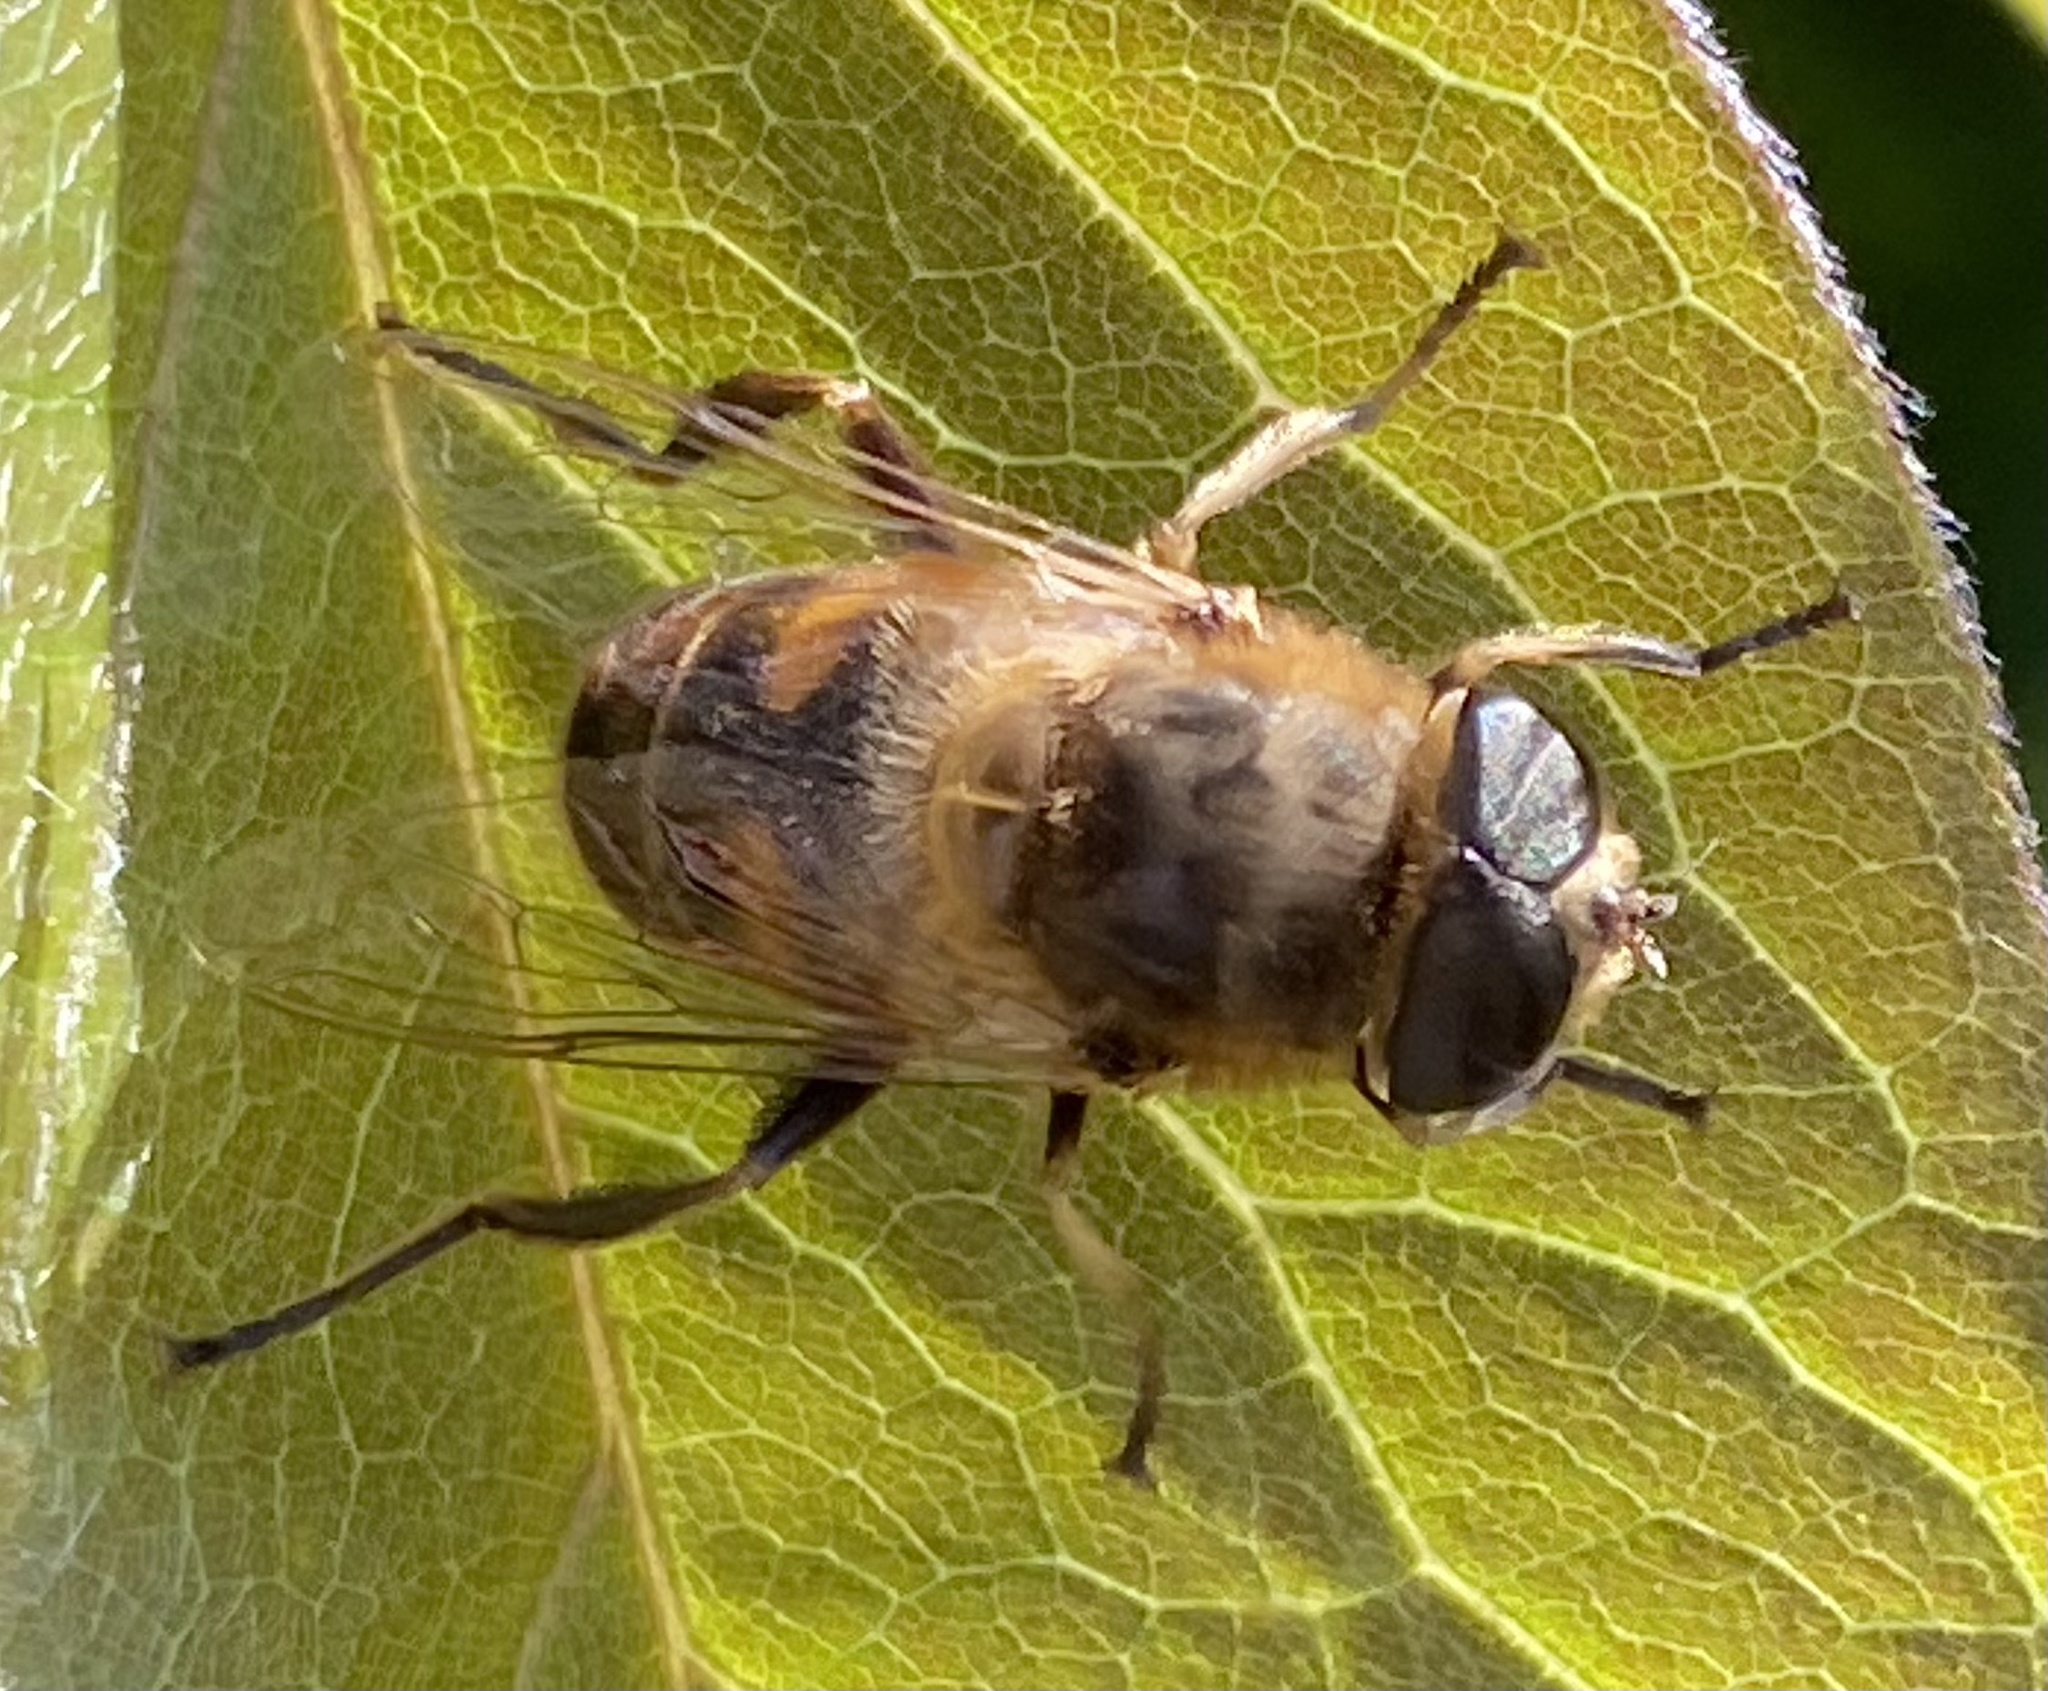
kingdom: Animalia
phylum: Arthropoda
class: Insecta
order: Diptera
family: Syrphidae
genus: Eristalis
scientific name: Eristalis tenax
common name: Drone fly
